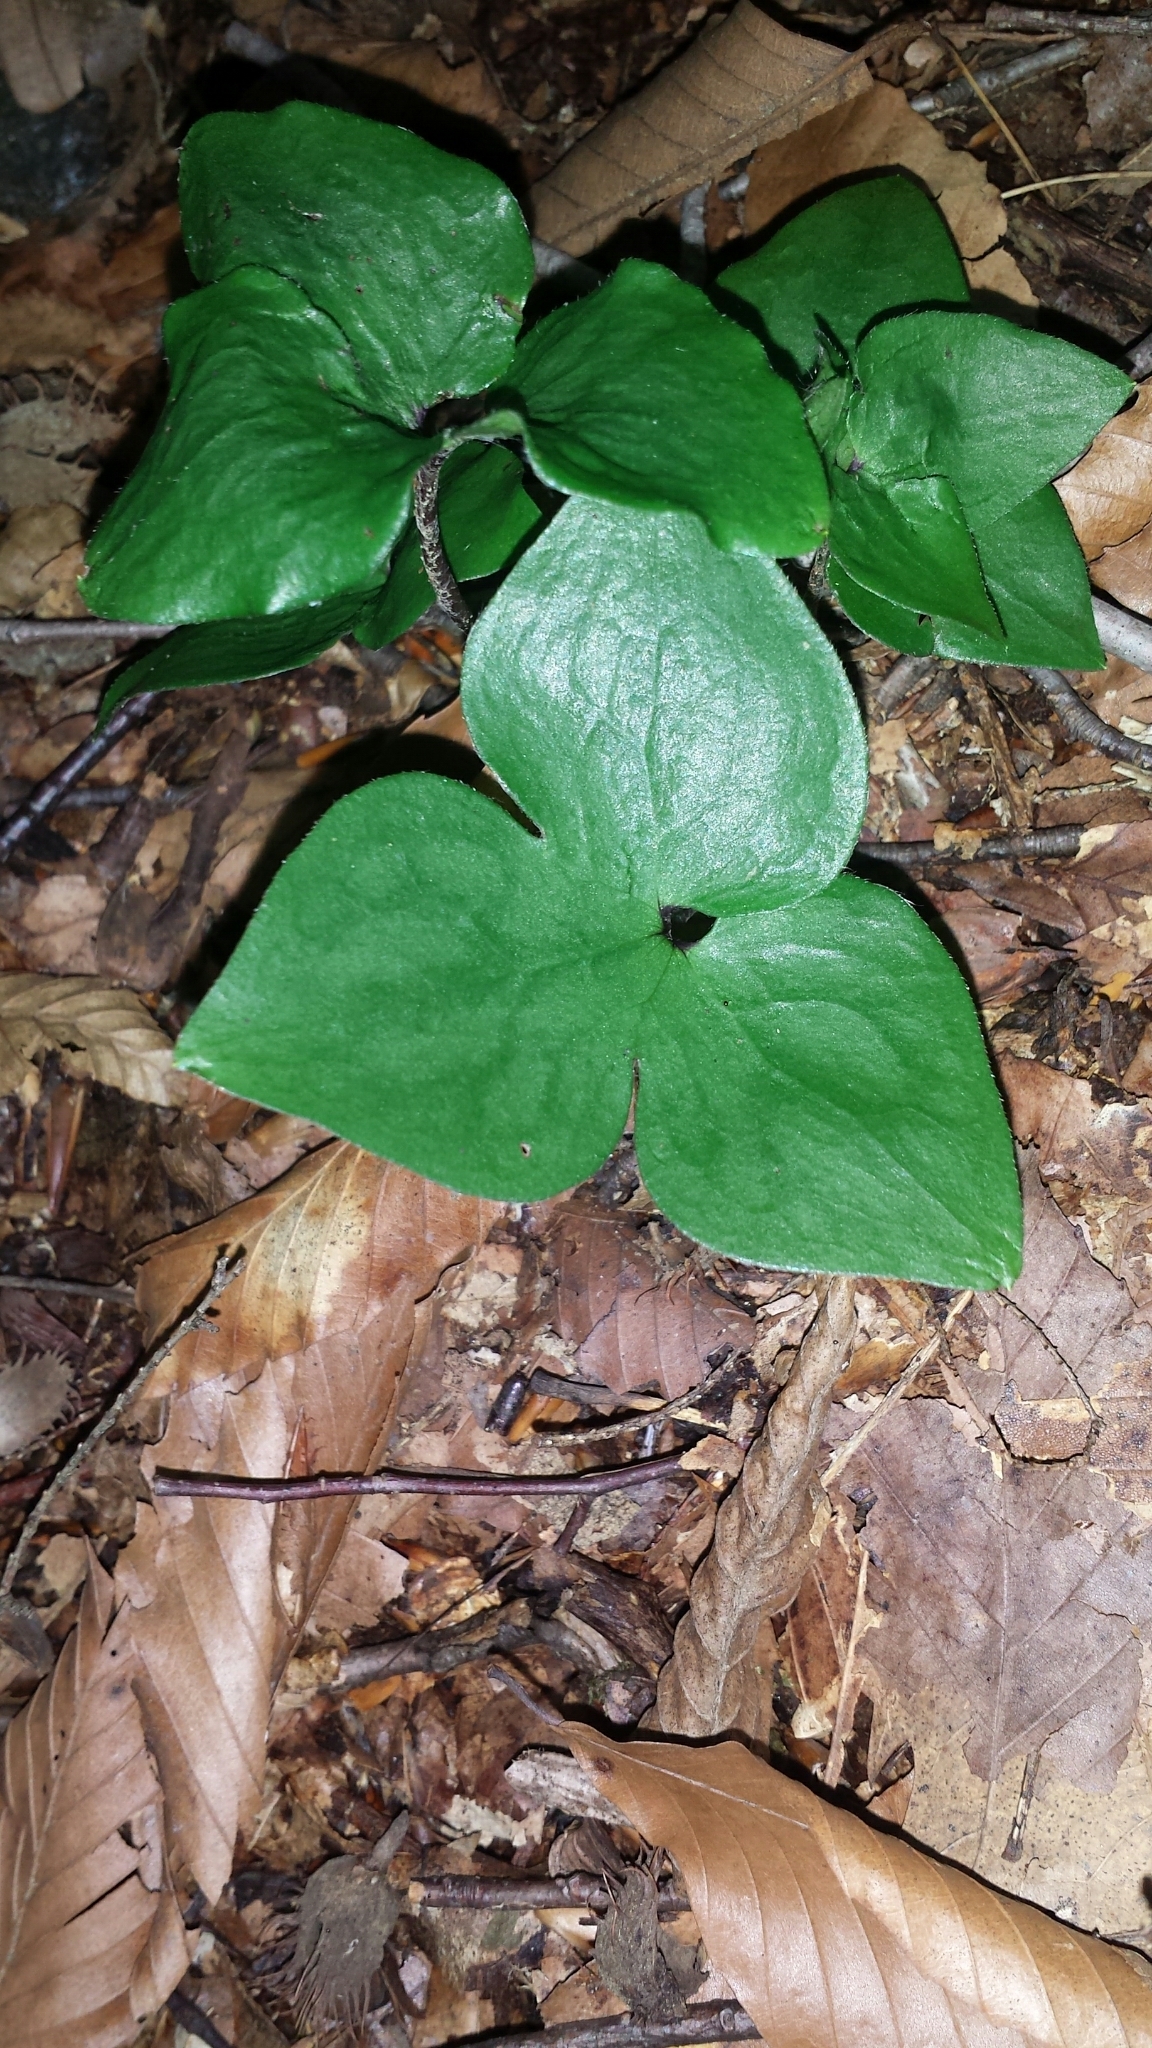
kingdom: Plantae
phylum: Tracheophyta
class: Magnoliopsida
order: Ranunculales
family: Ranunculaceae
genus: Hepatica
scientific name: Hepatica acutiloba
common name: Sharp-lobed hepatica
